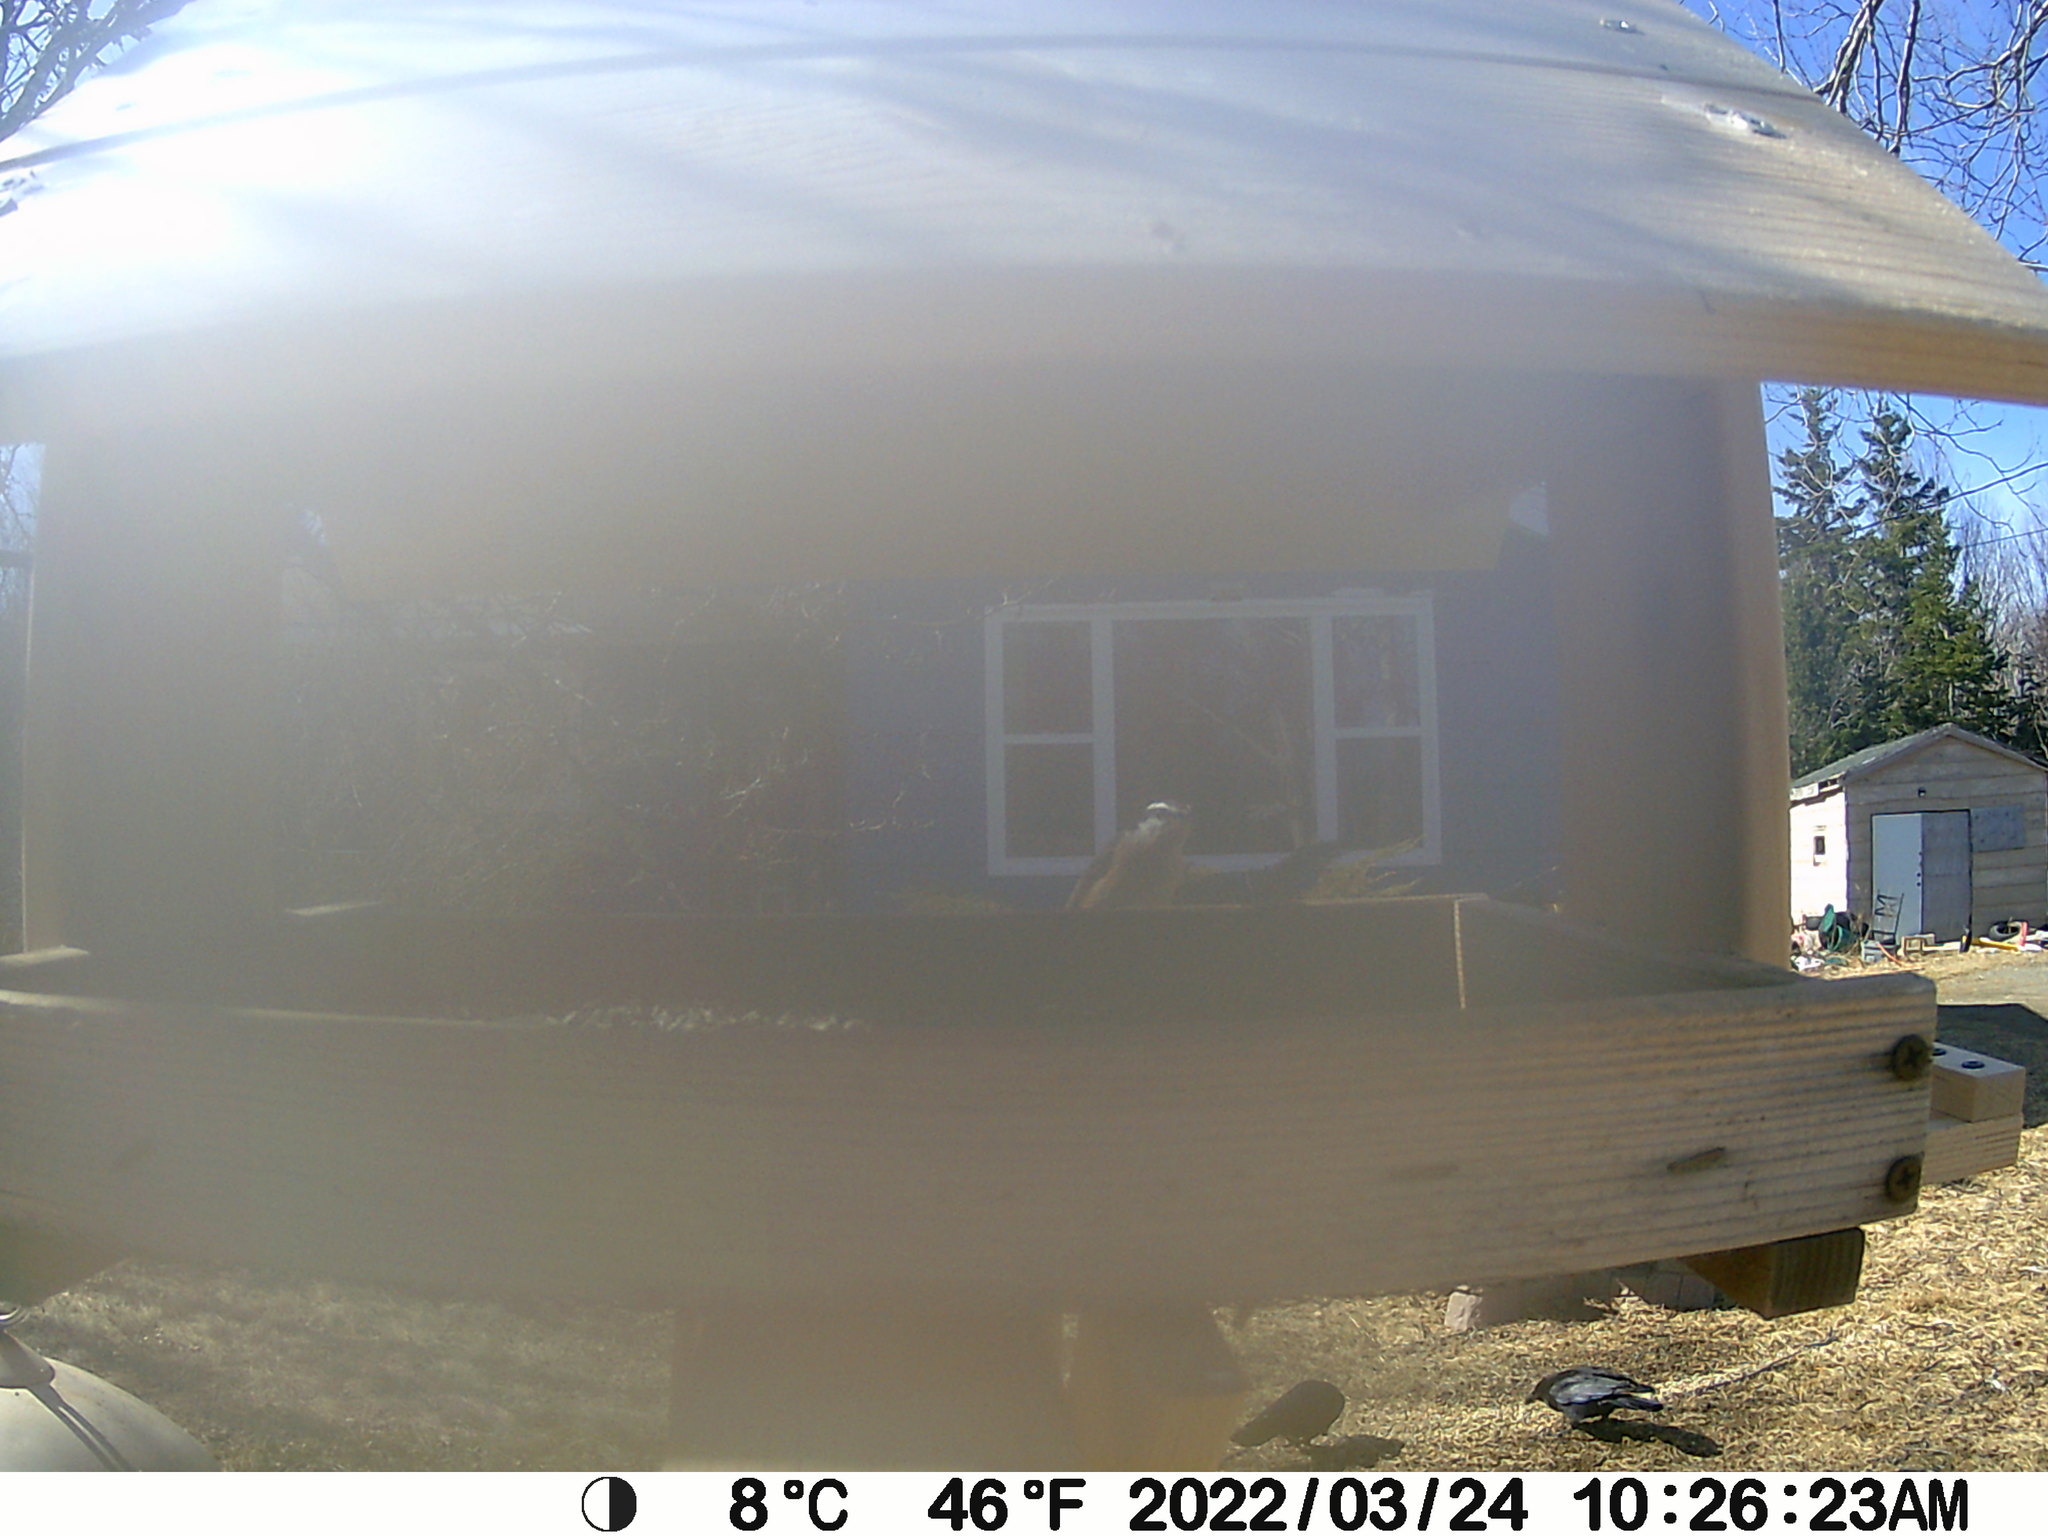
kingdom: Animalia
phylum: Chordata
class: Aves
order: Passeriformes
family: Corvidae
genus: Corvus
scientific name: Corvus brachyrhynchos
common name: American crow
